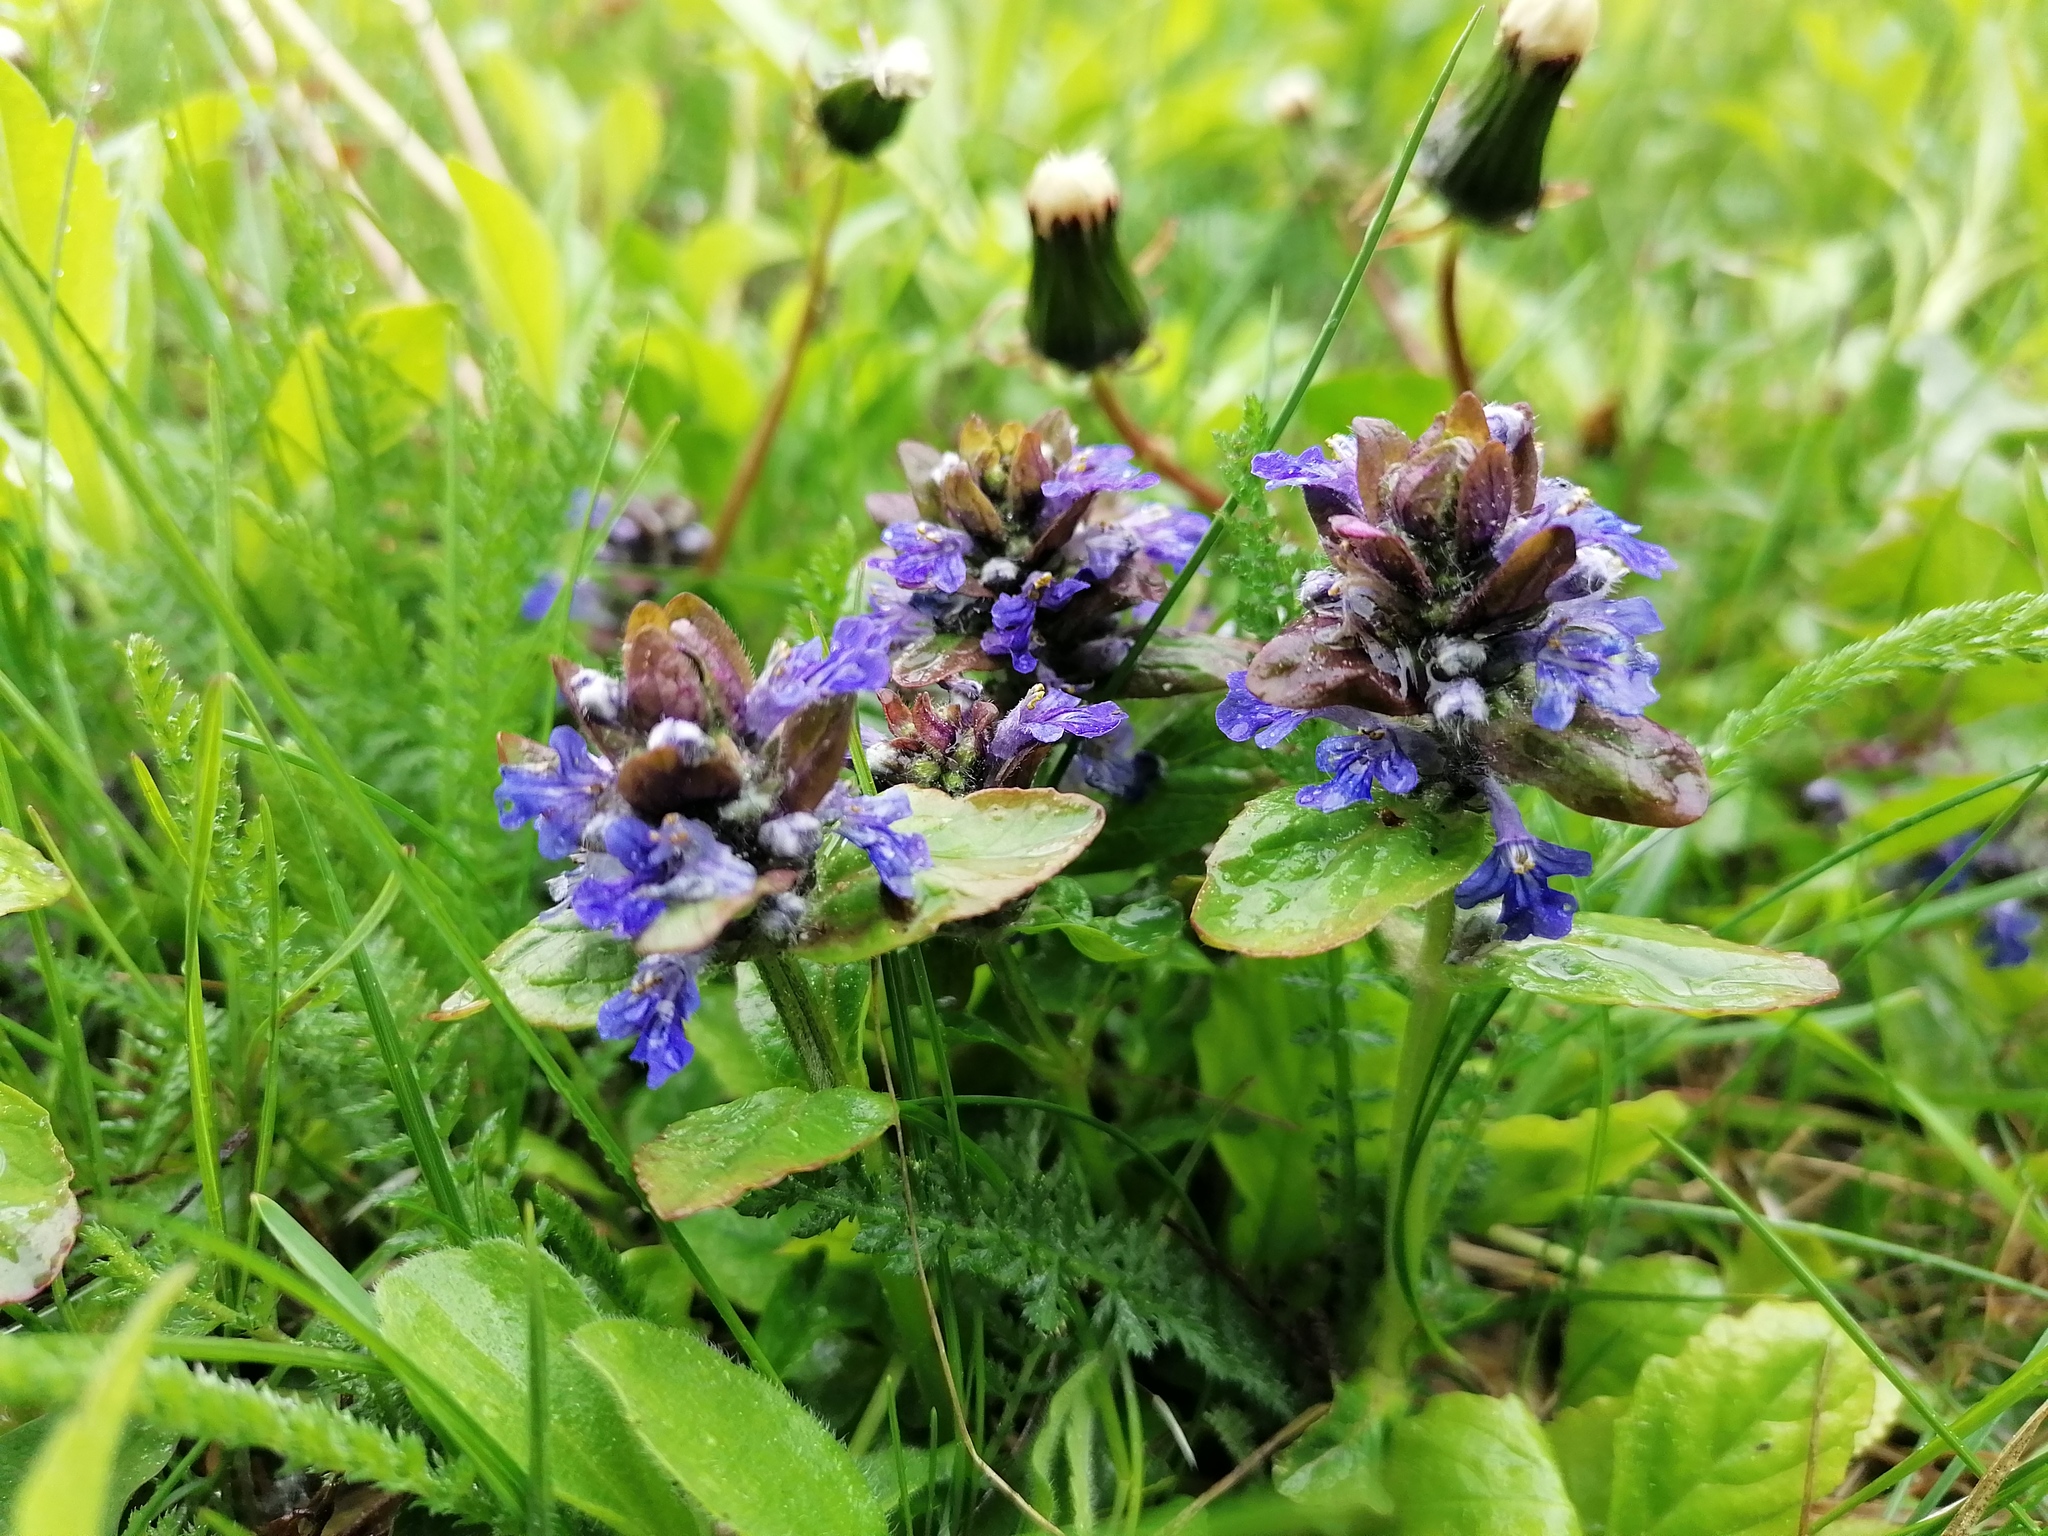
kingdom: Plantae
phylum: Tracheophyta
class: Magnoliopsida
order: Lamiales
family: Lamiaceae
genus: Ajuga
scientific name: Ajuga reptans
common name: Bugle
